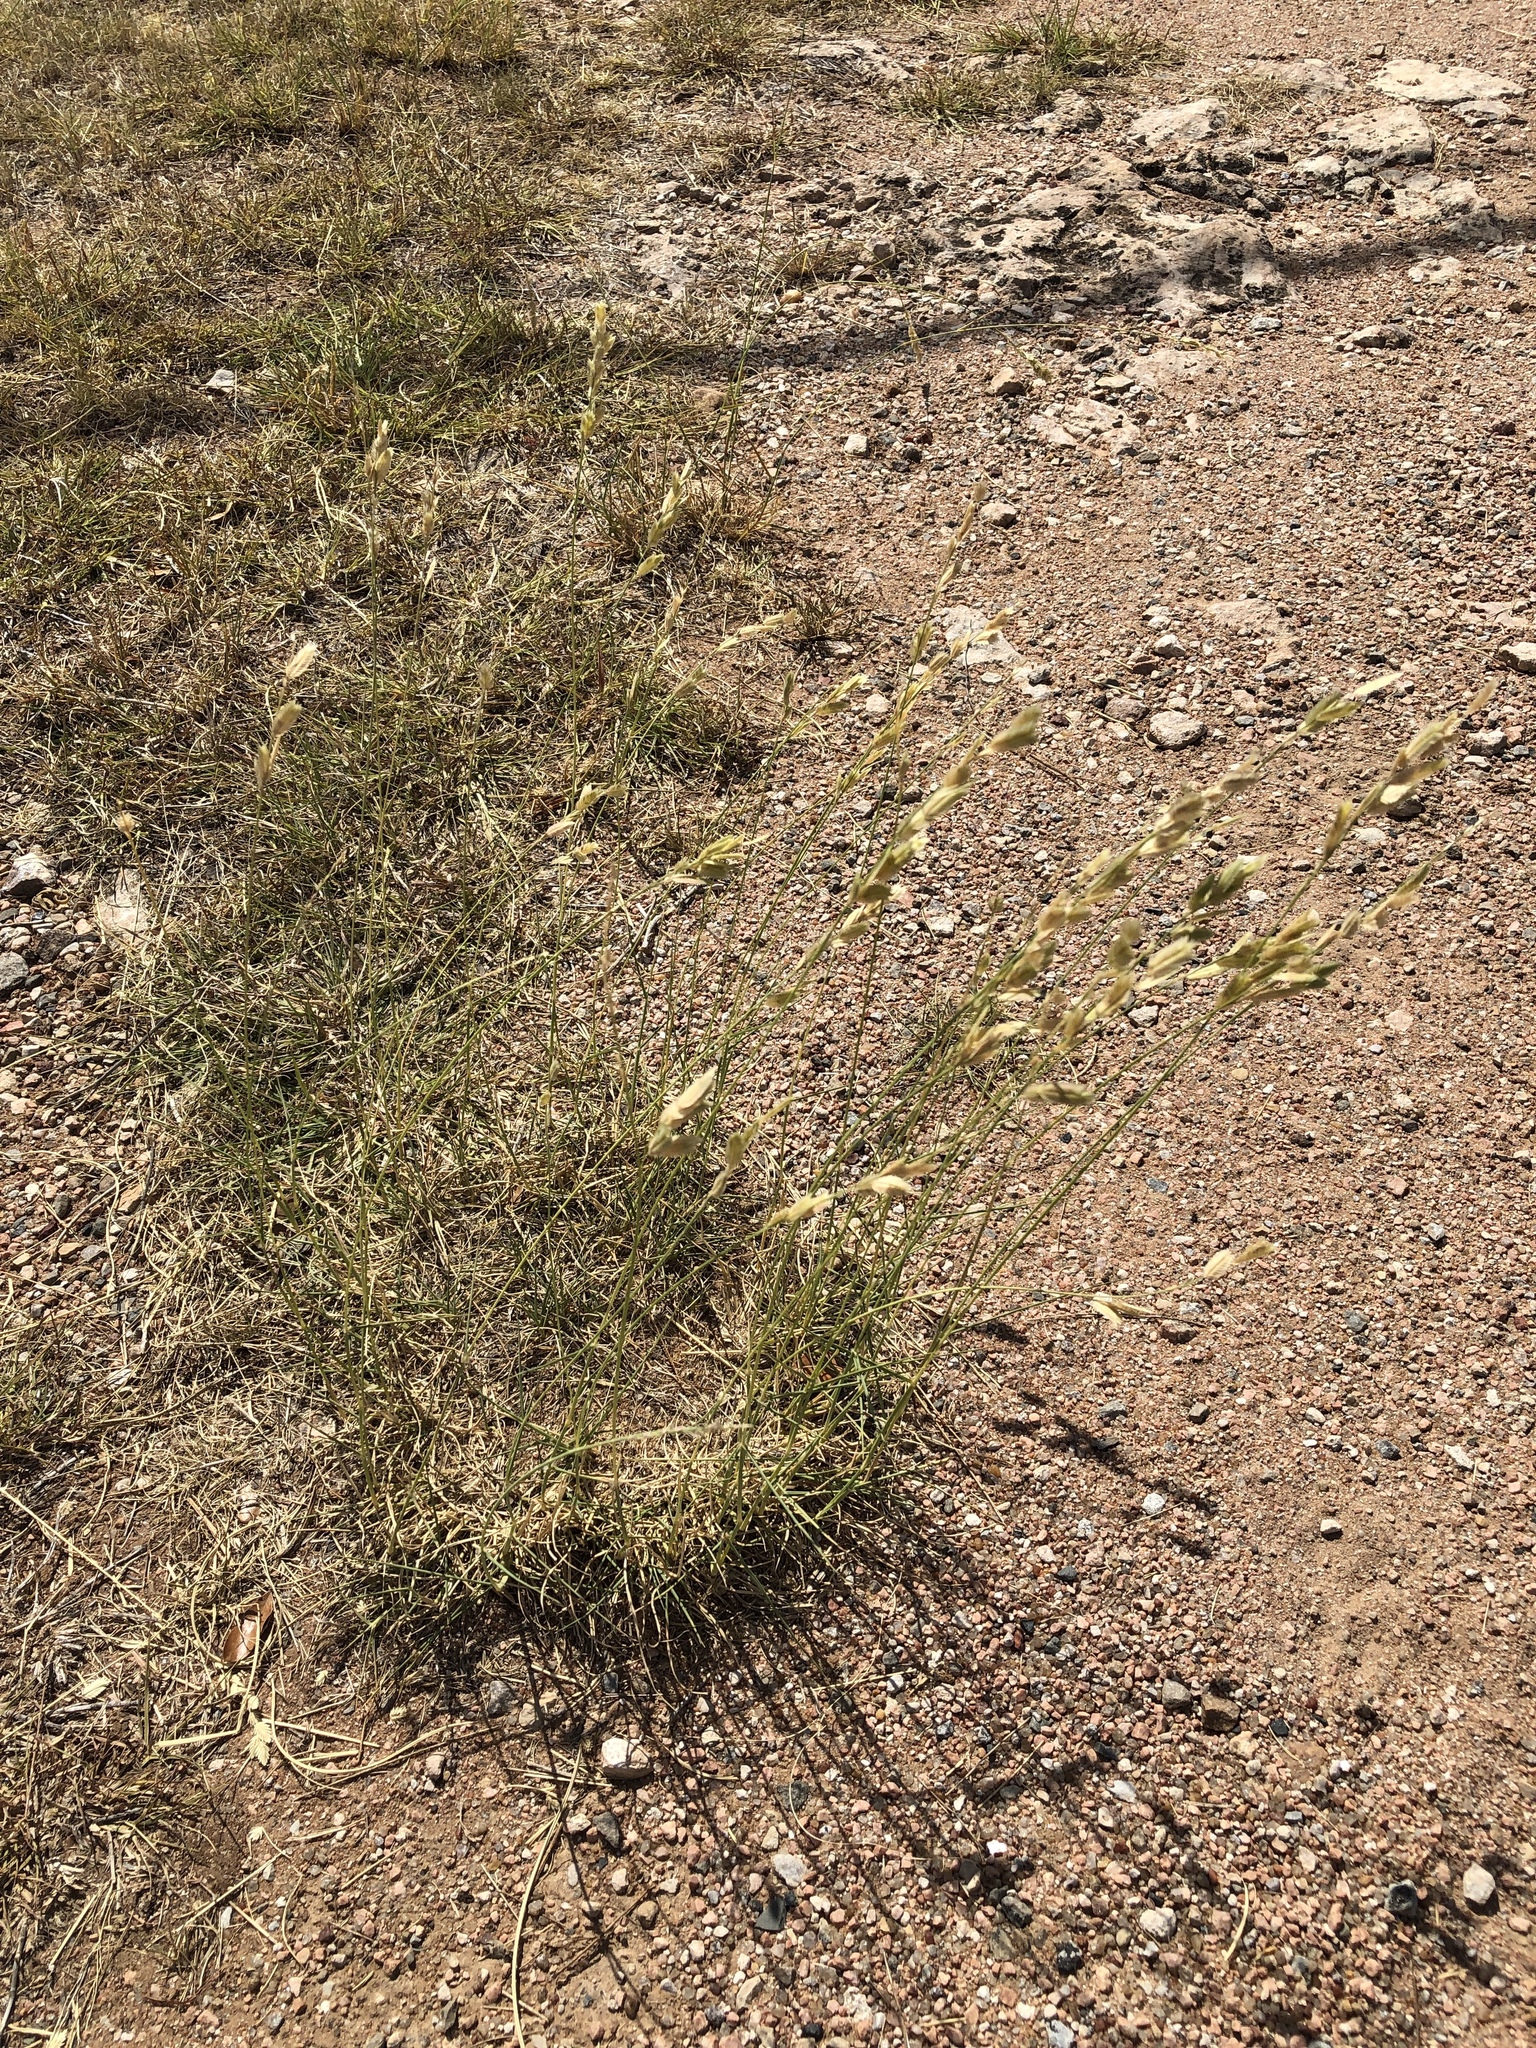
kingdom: Plantae
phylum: Tracheophyta
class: Liliopsida
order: Poales
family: Poaceae
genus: Eragrostis
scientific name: Eragrostis superba
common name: Wilman lovegrass
